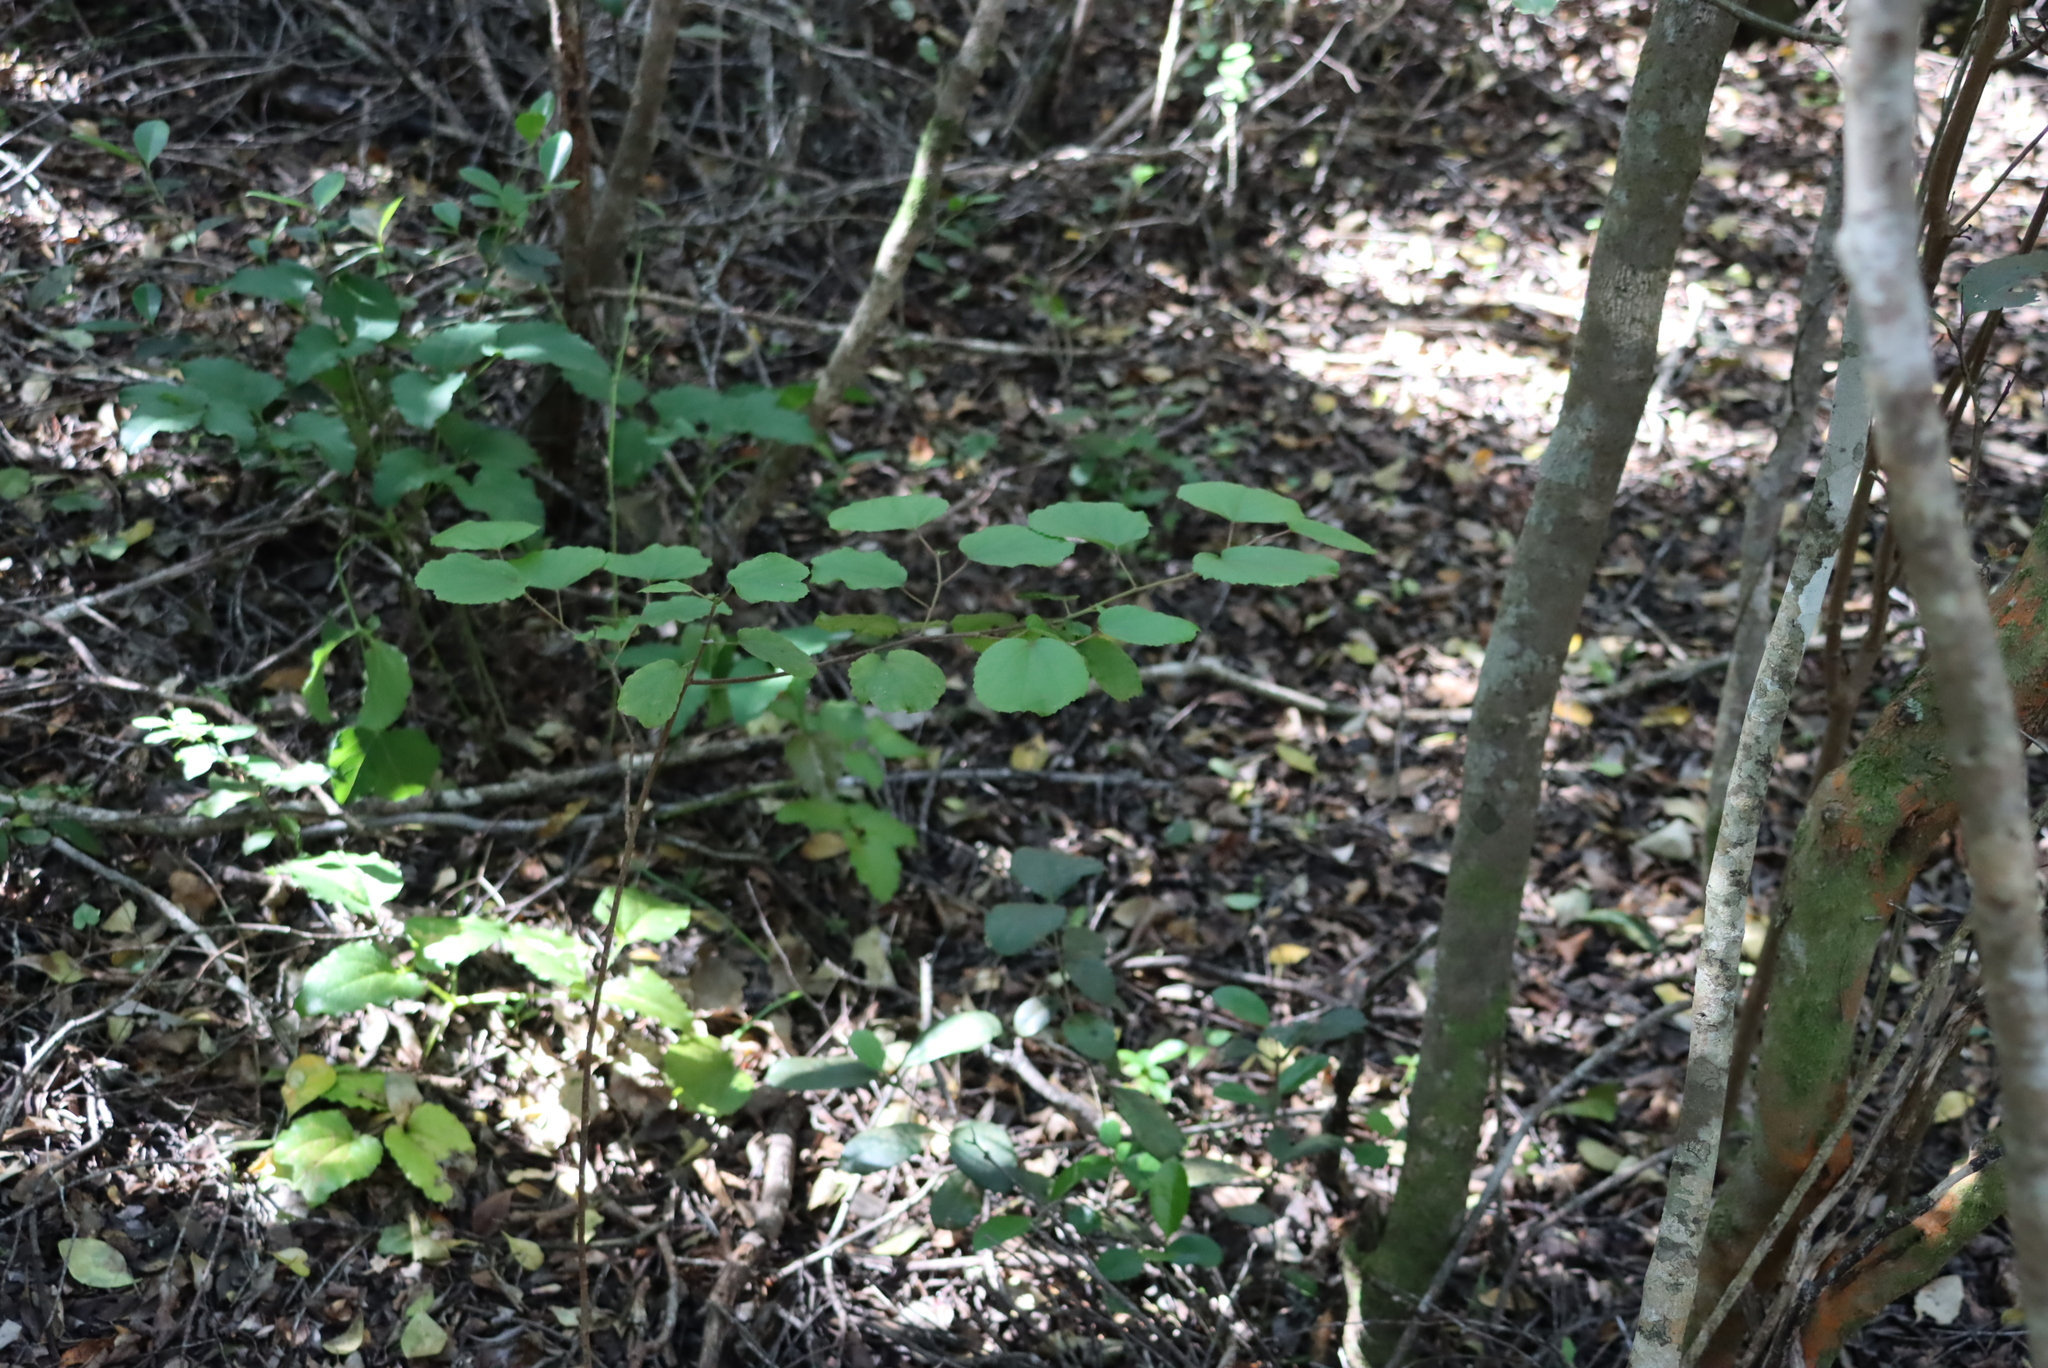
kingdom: Plantae
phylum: Tracheophyta
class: Magnoliopsida
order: Malpighiales
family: Salicaceae
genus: Trimeria
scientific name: Trimeria grandifolia
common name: Wild mulberry
